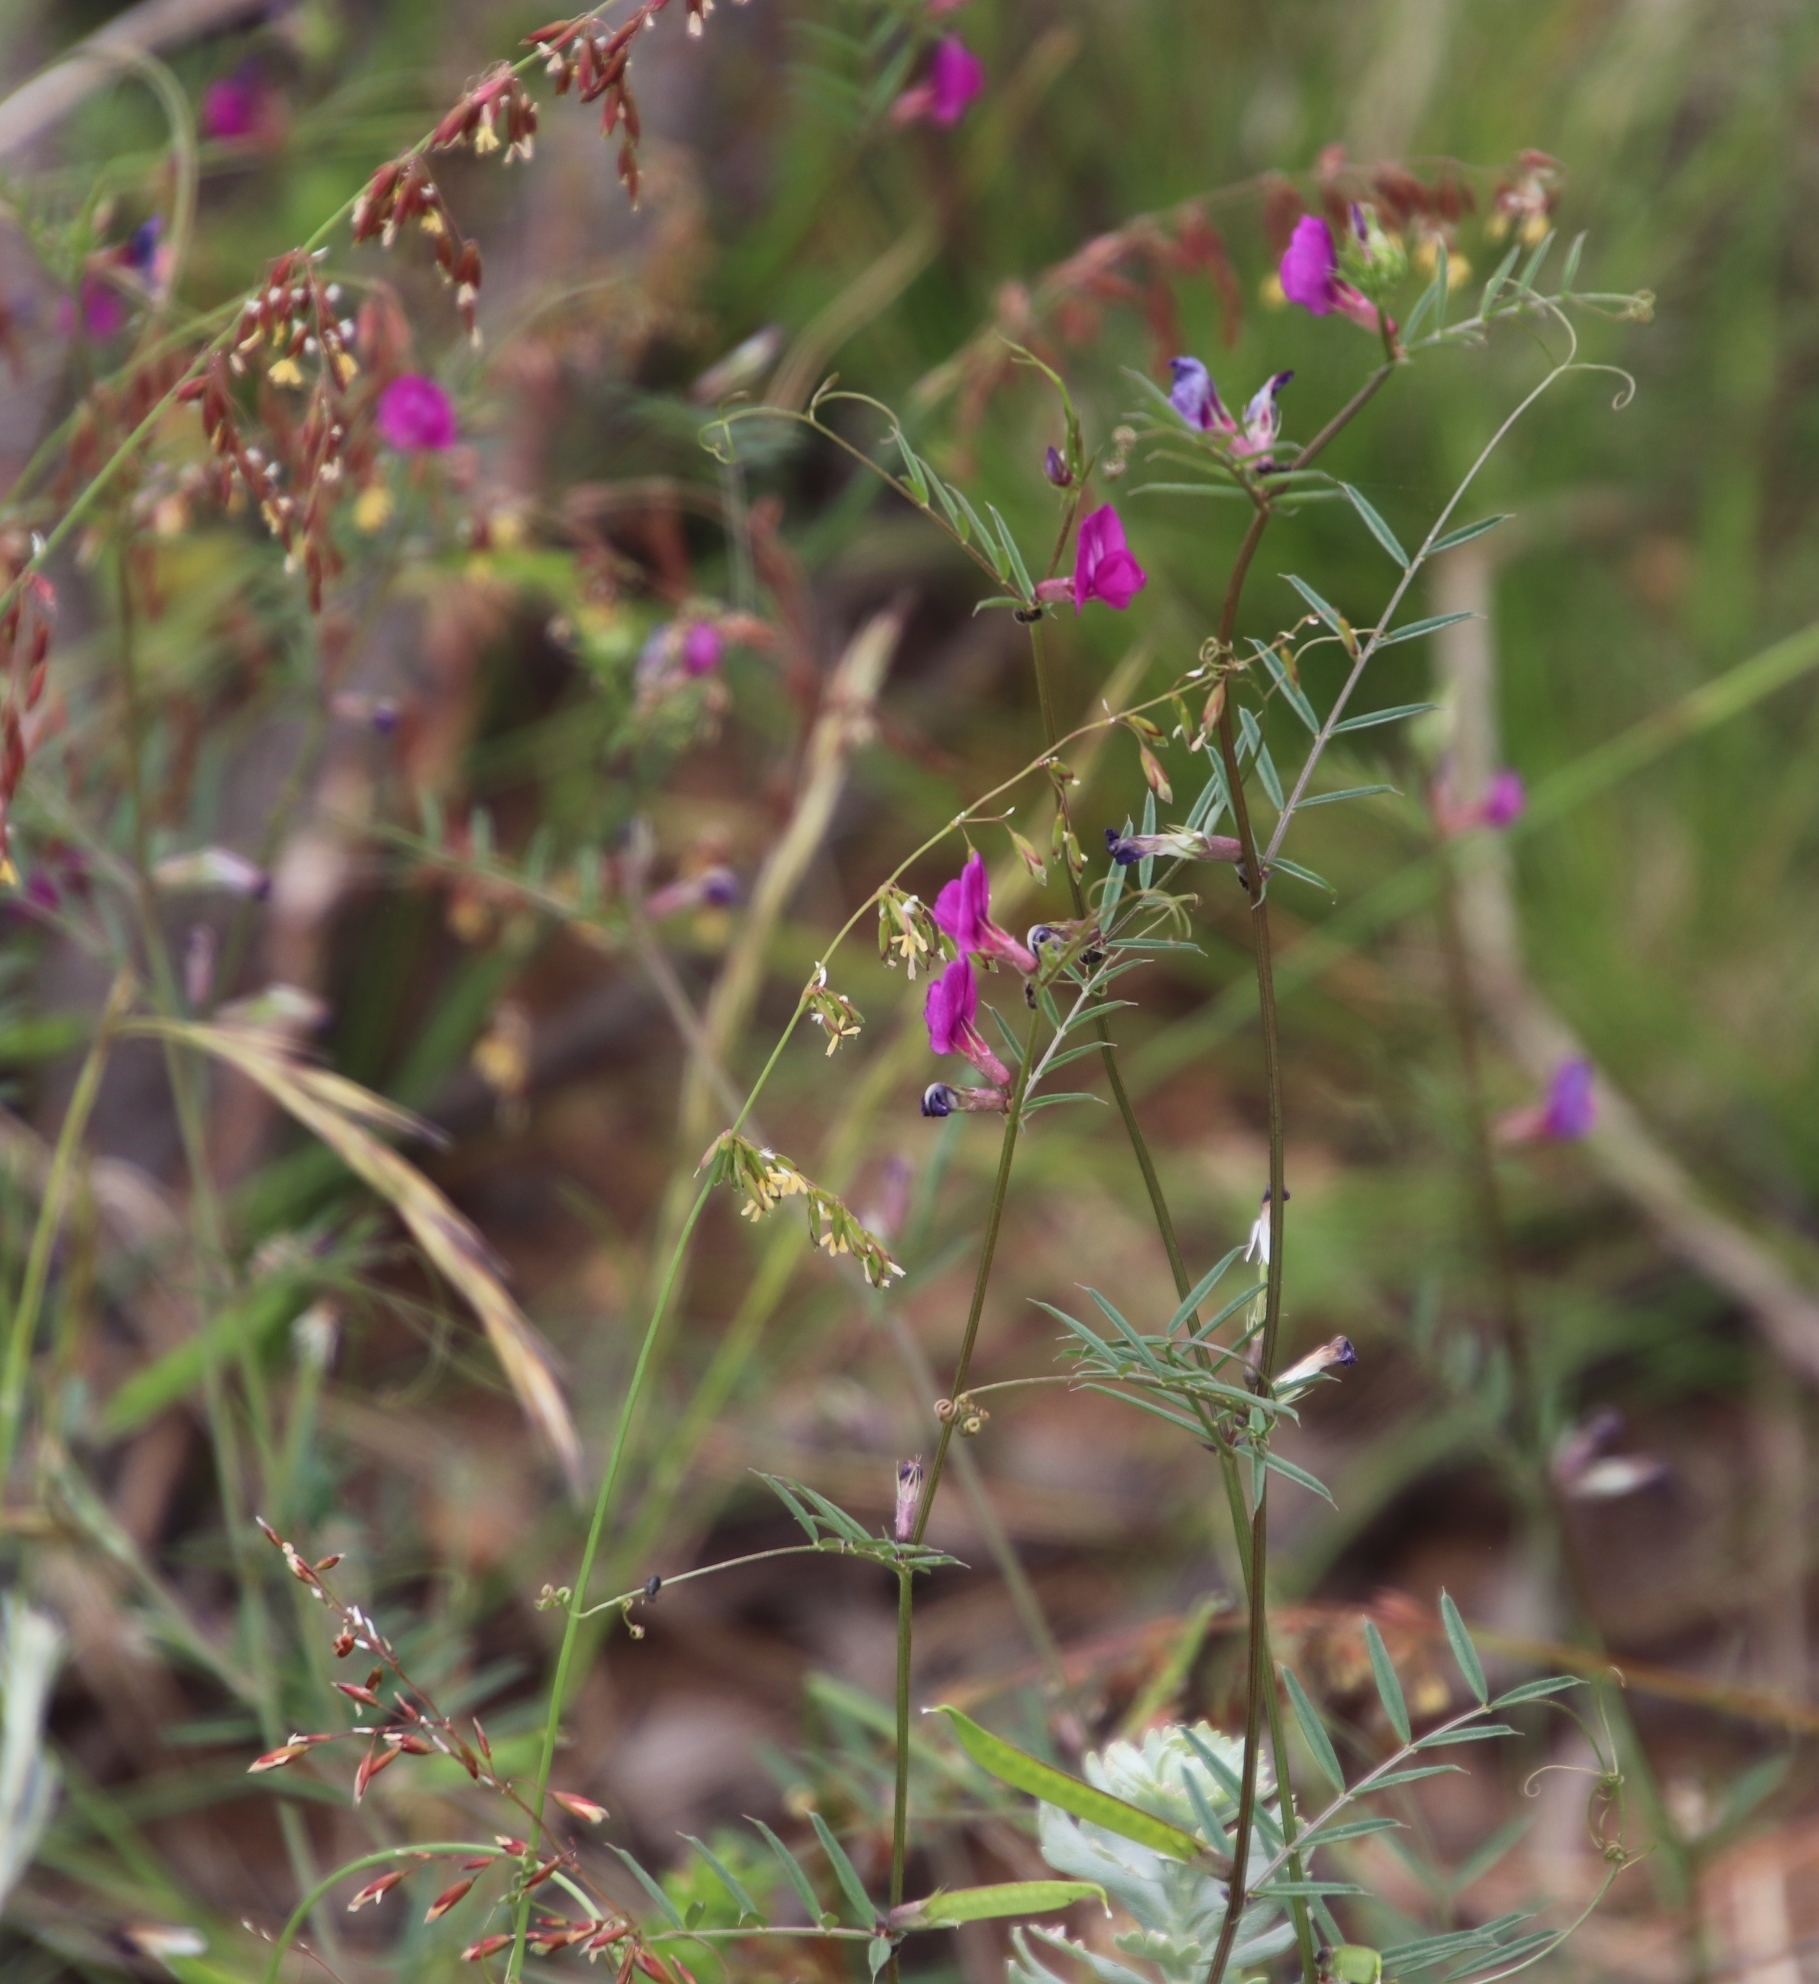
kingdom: Plantae
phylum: Tracheophyta
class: Magnoliopsida
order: Fabales
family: Fabaceae
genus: Vicia
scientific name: Vicia sativa
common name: Garden vetch
